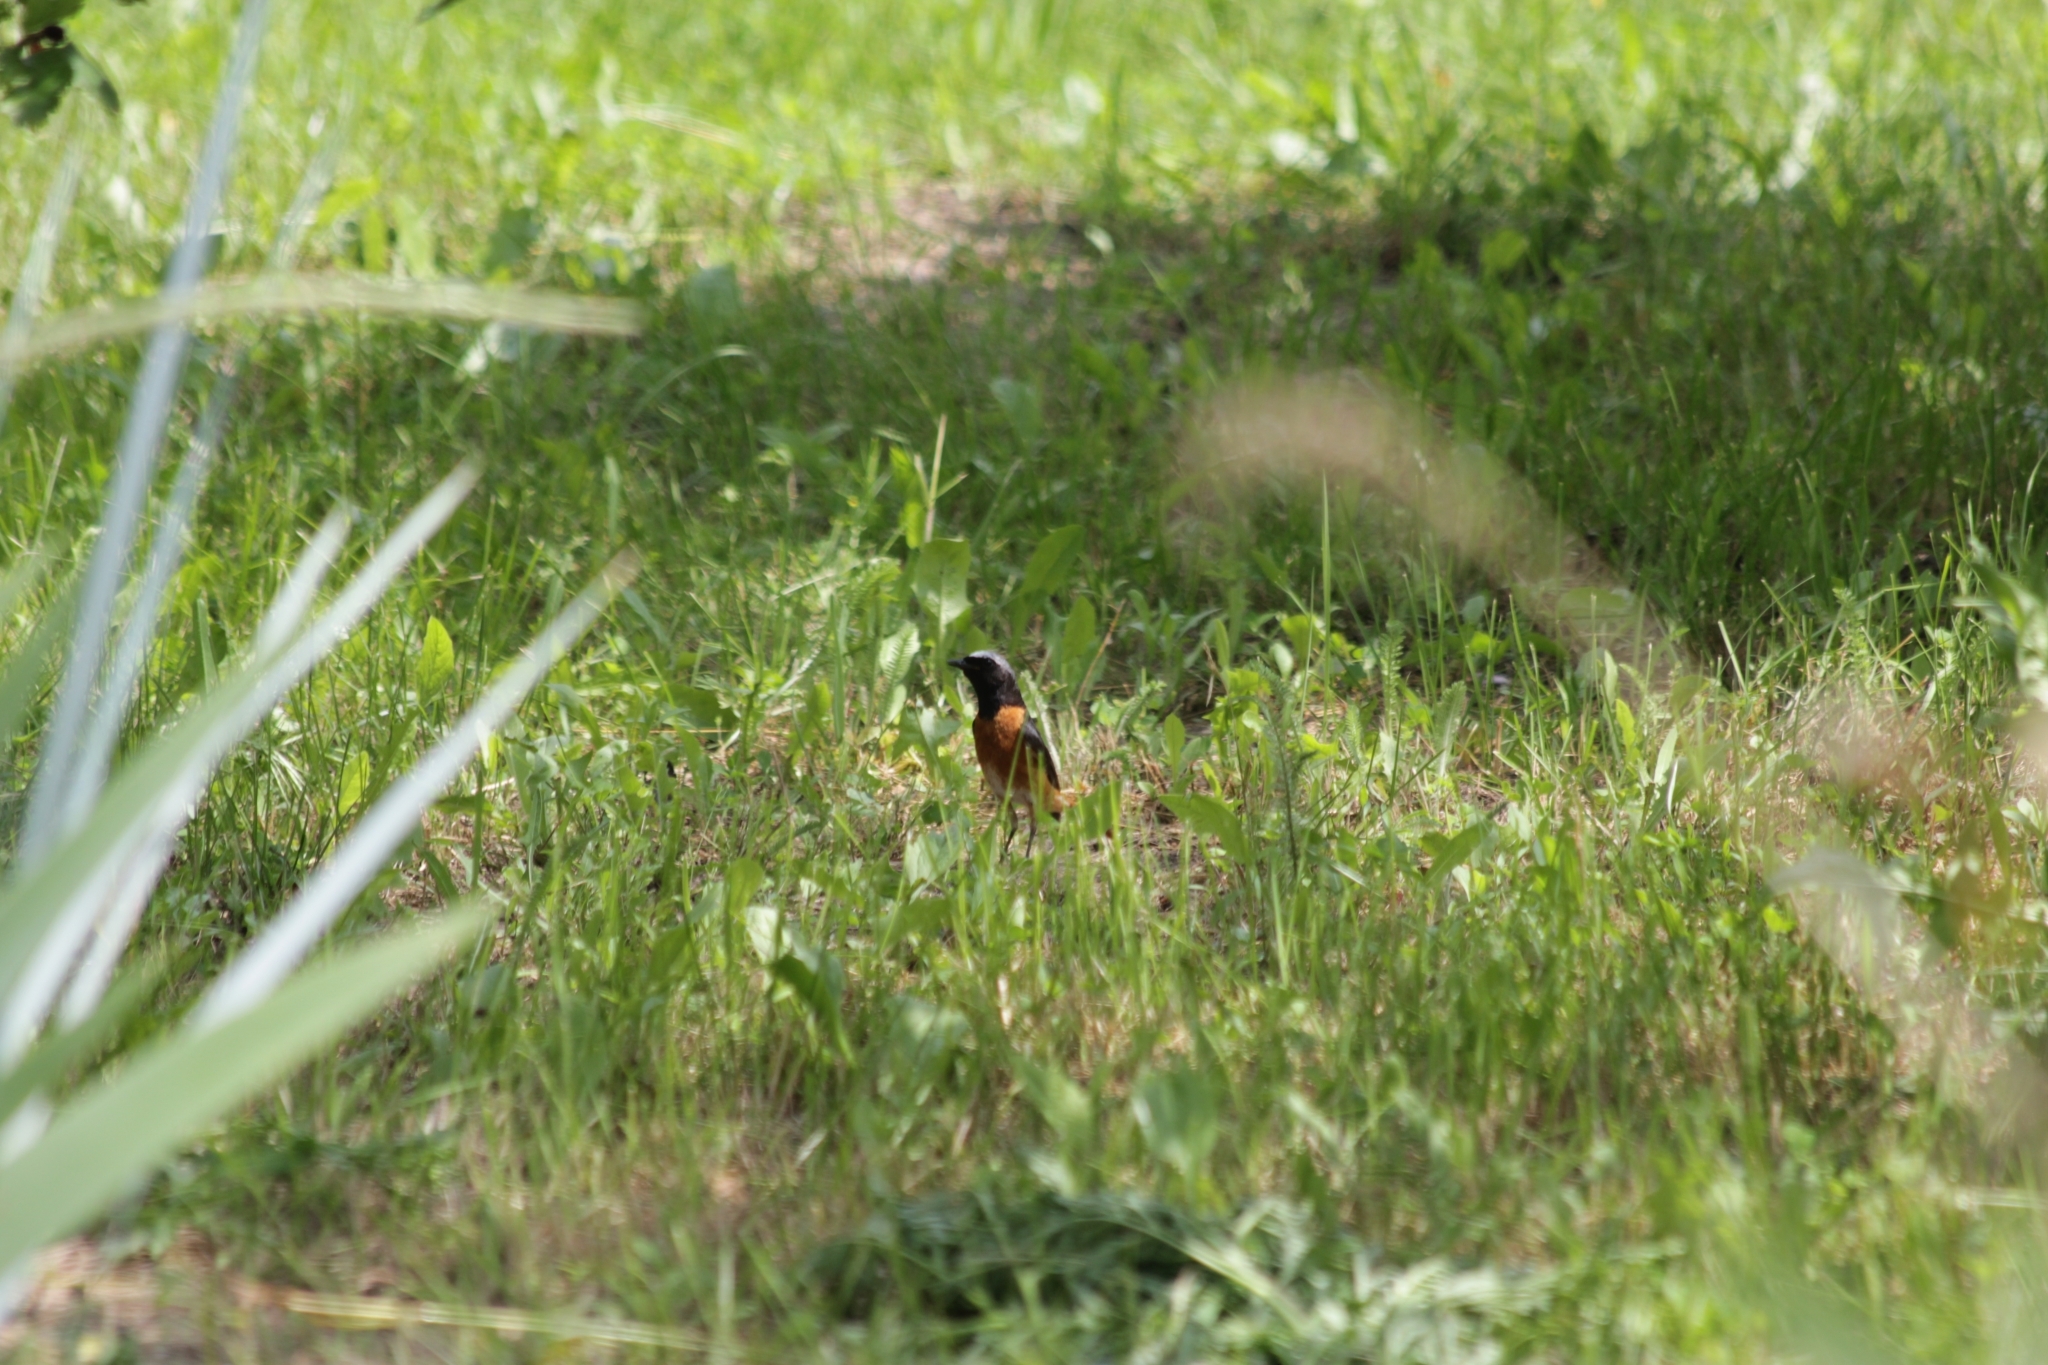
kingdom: Animalia
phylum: Chordata
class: Aves
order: Passeriformes
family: Muscicapidae
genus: Phoenicurus
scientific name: Phoenicurus phoenicurus
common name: Common redstart
